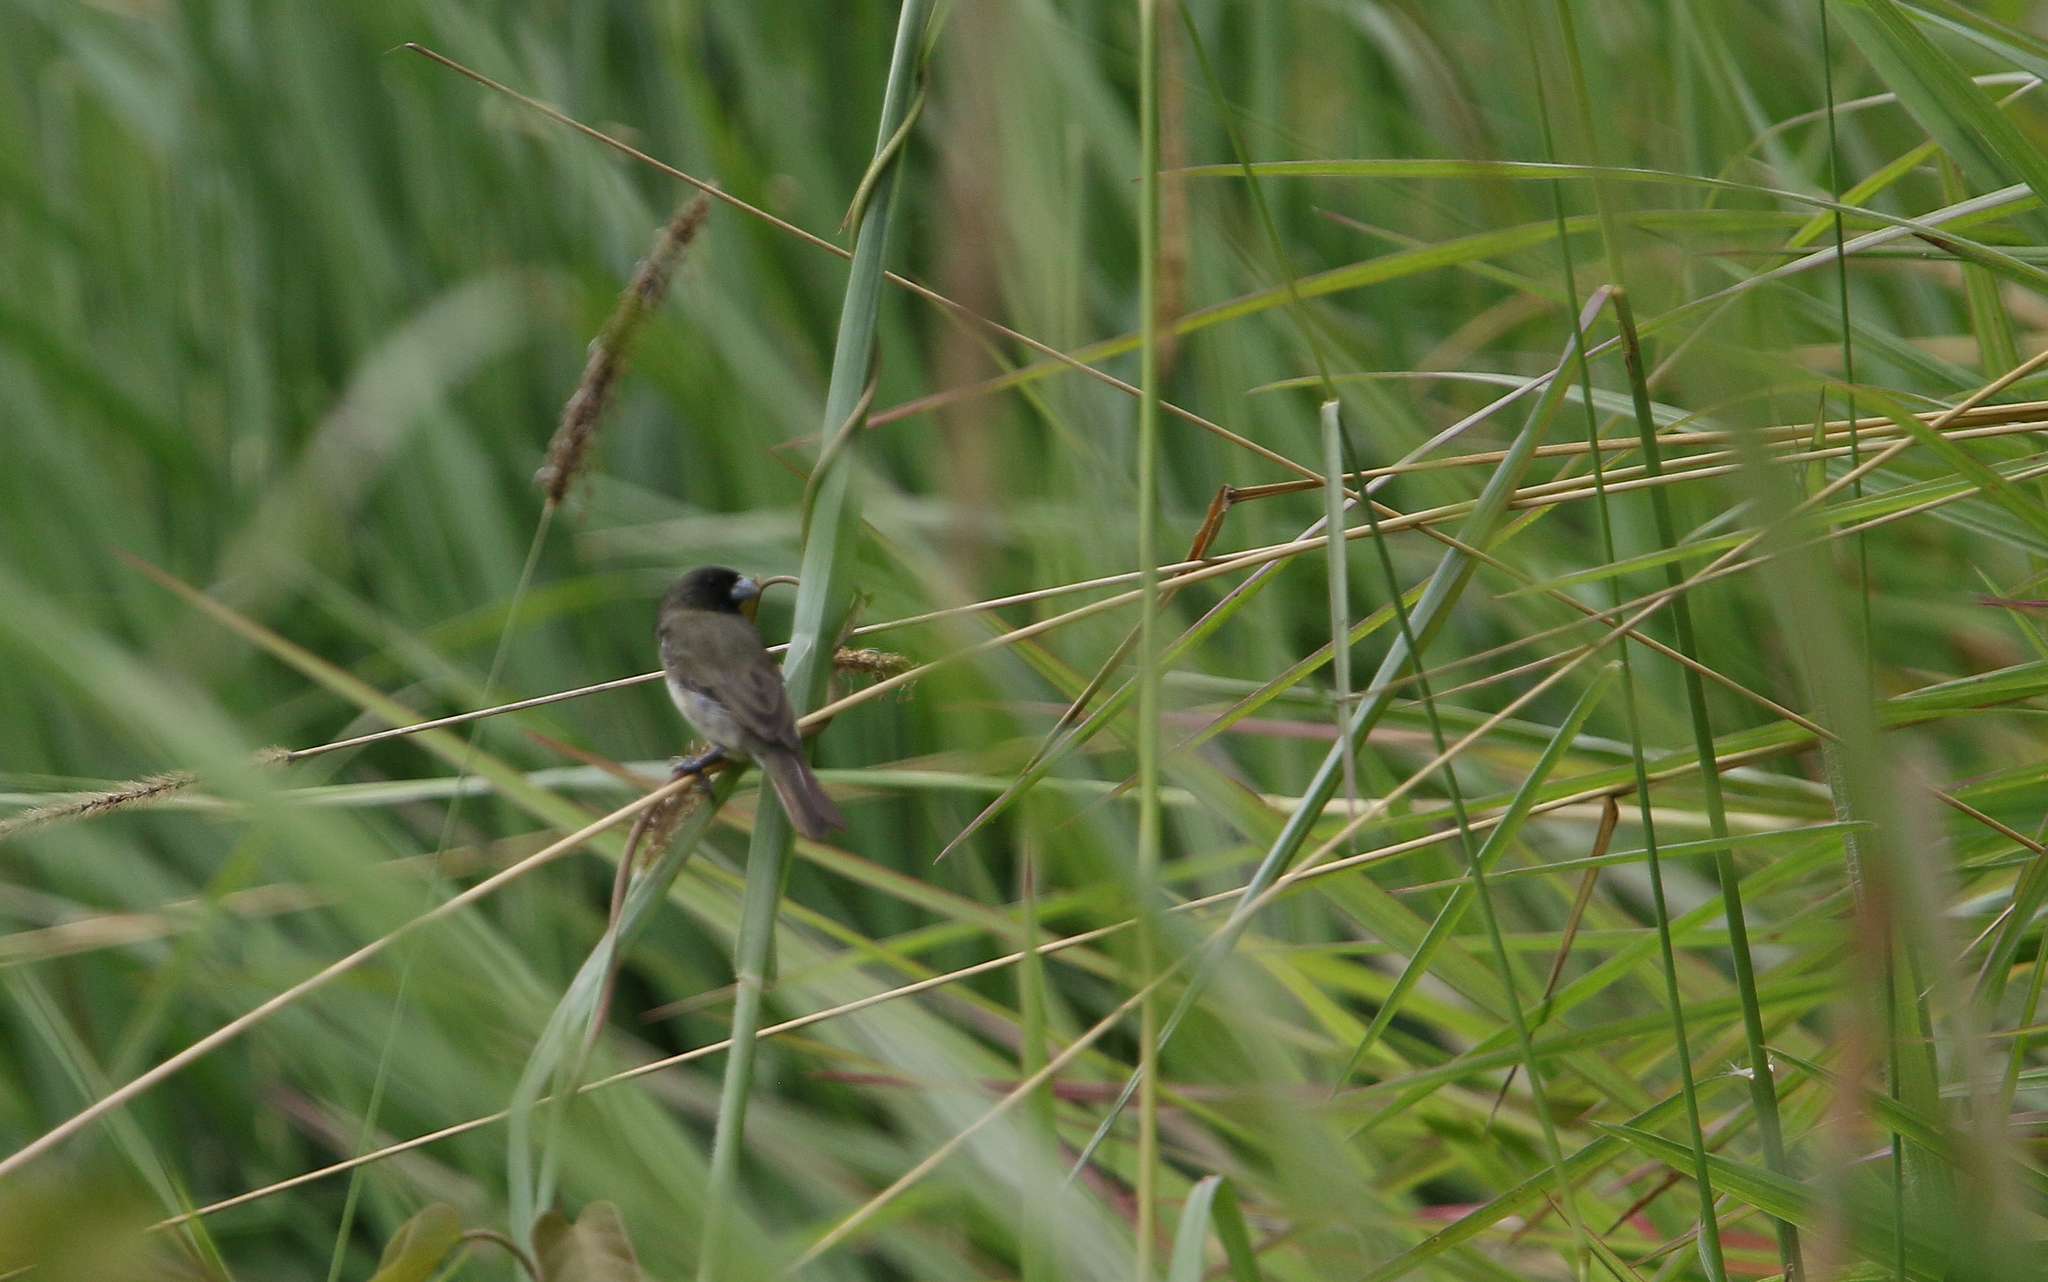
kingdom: Animalia
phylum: Chordata
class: Aves
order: Passeriformes
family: Thraupidae
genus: Sporophila
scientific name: Sporophila nigricollis
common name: Yellow-bellied seedeater
